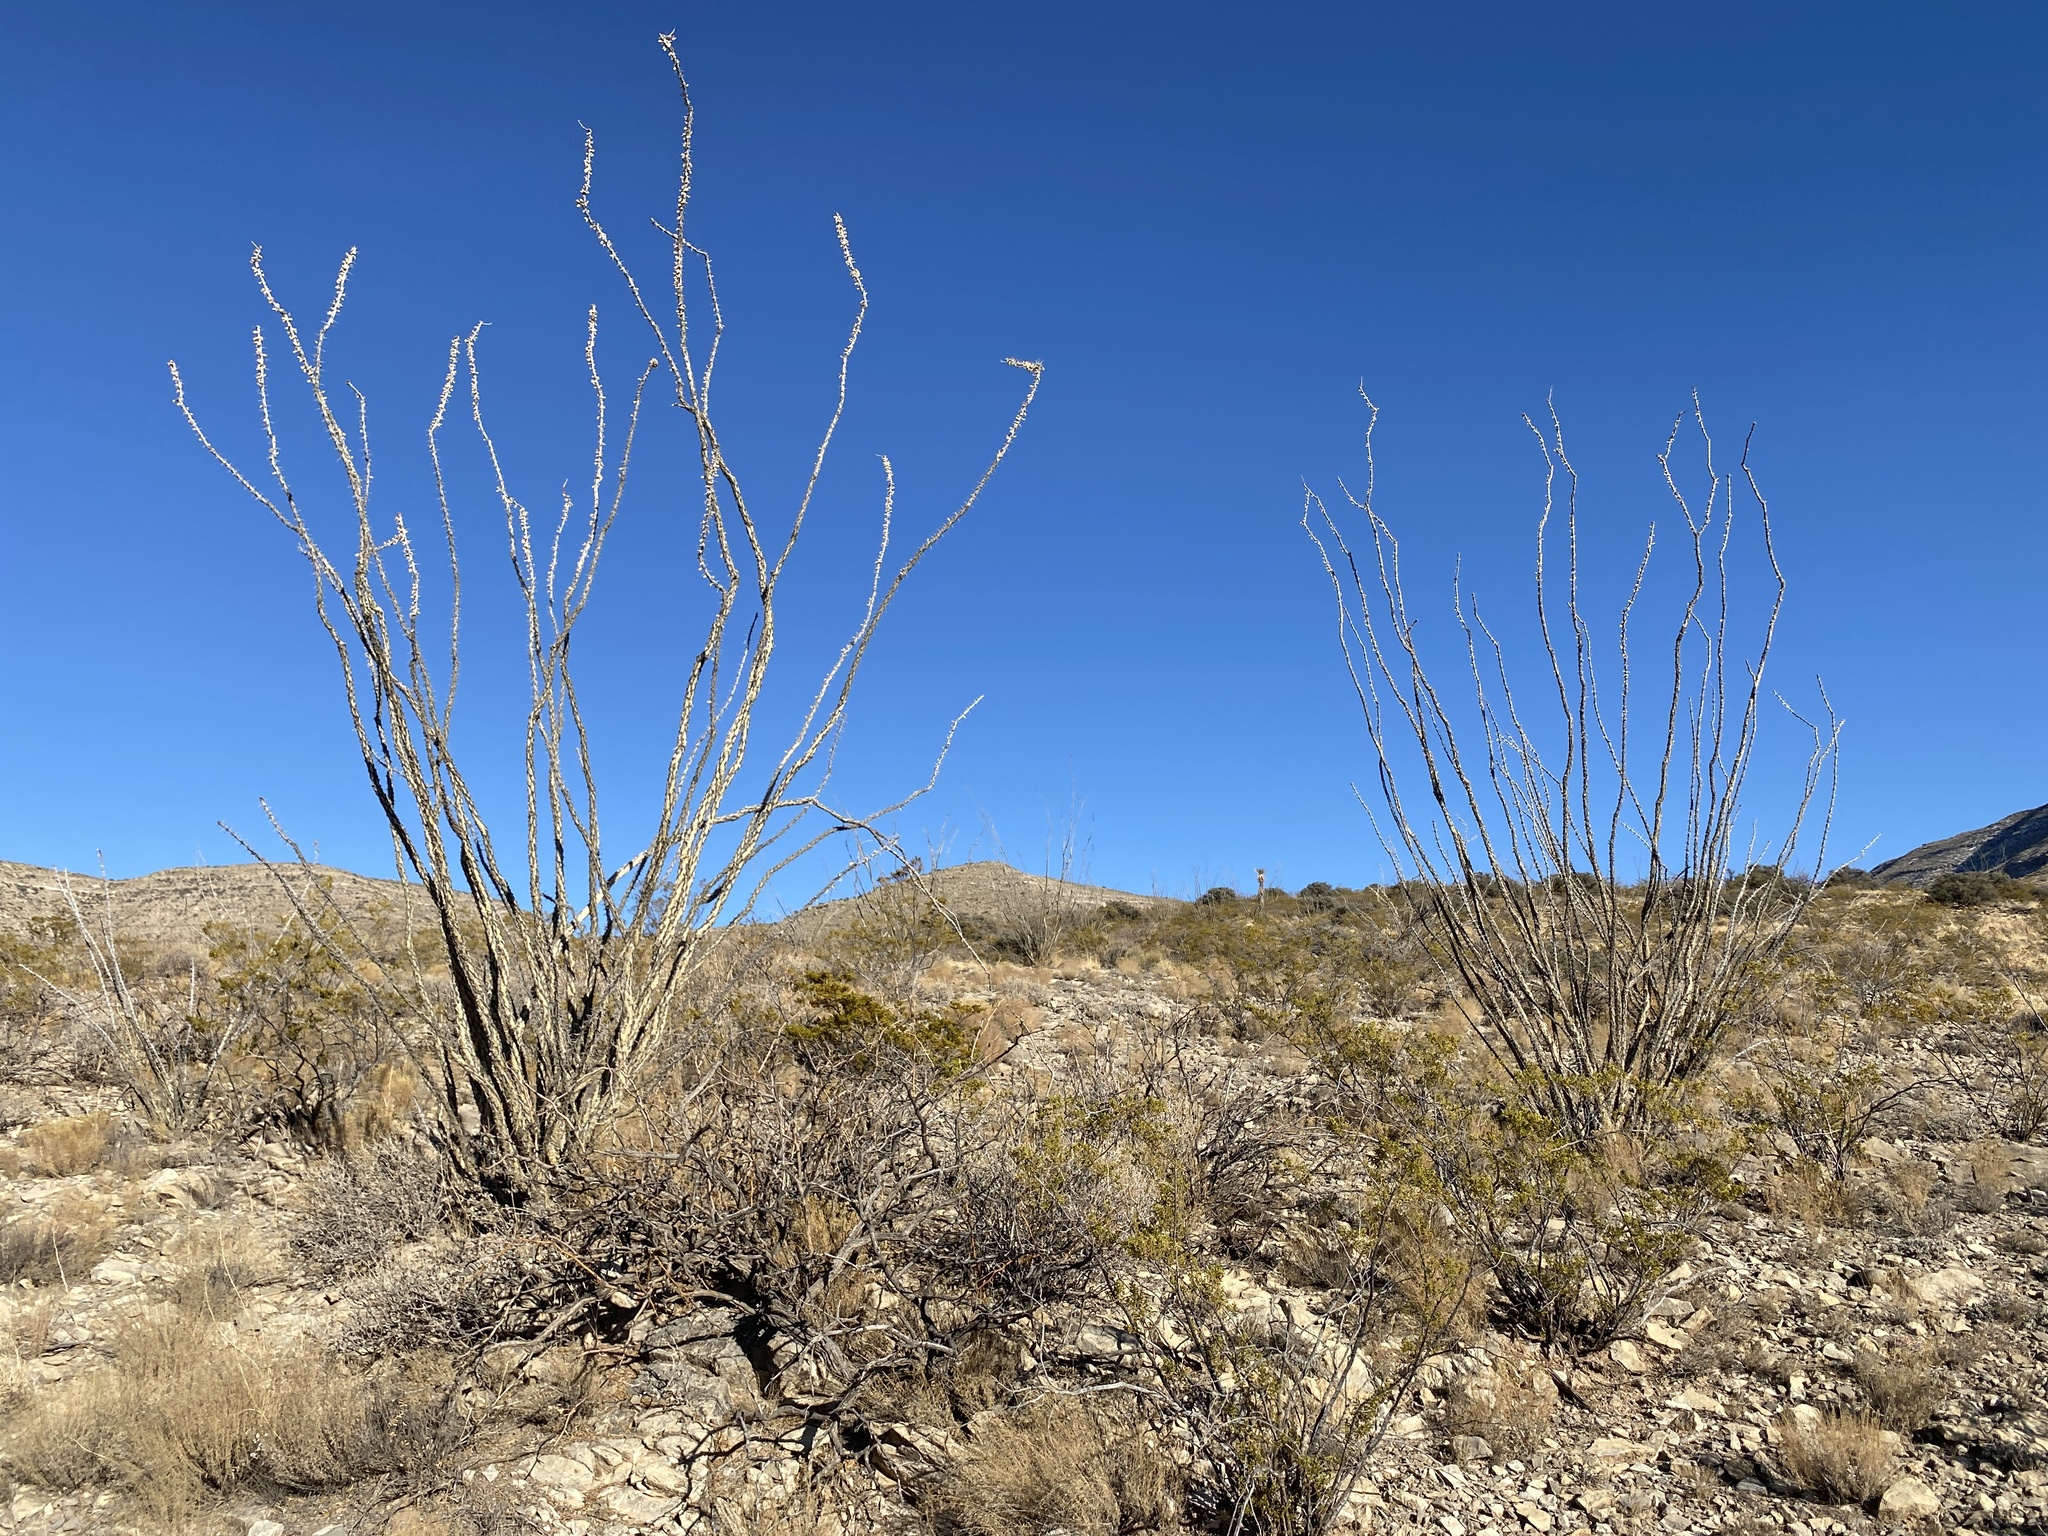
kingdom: Plantae
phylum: Tracheophyta
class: Magnoliopsida
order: Ericales
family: Fouquieriaceae
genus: Fouquieria
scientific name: Fouquieria splendens
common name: Vine-cactus
